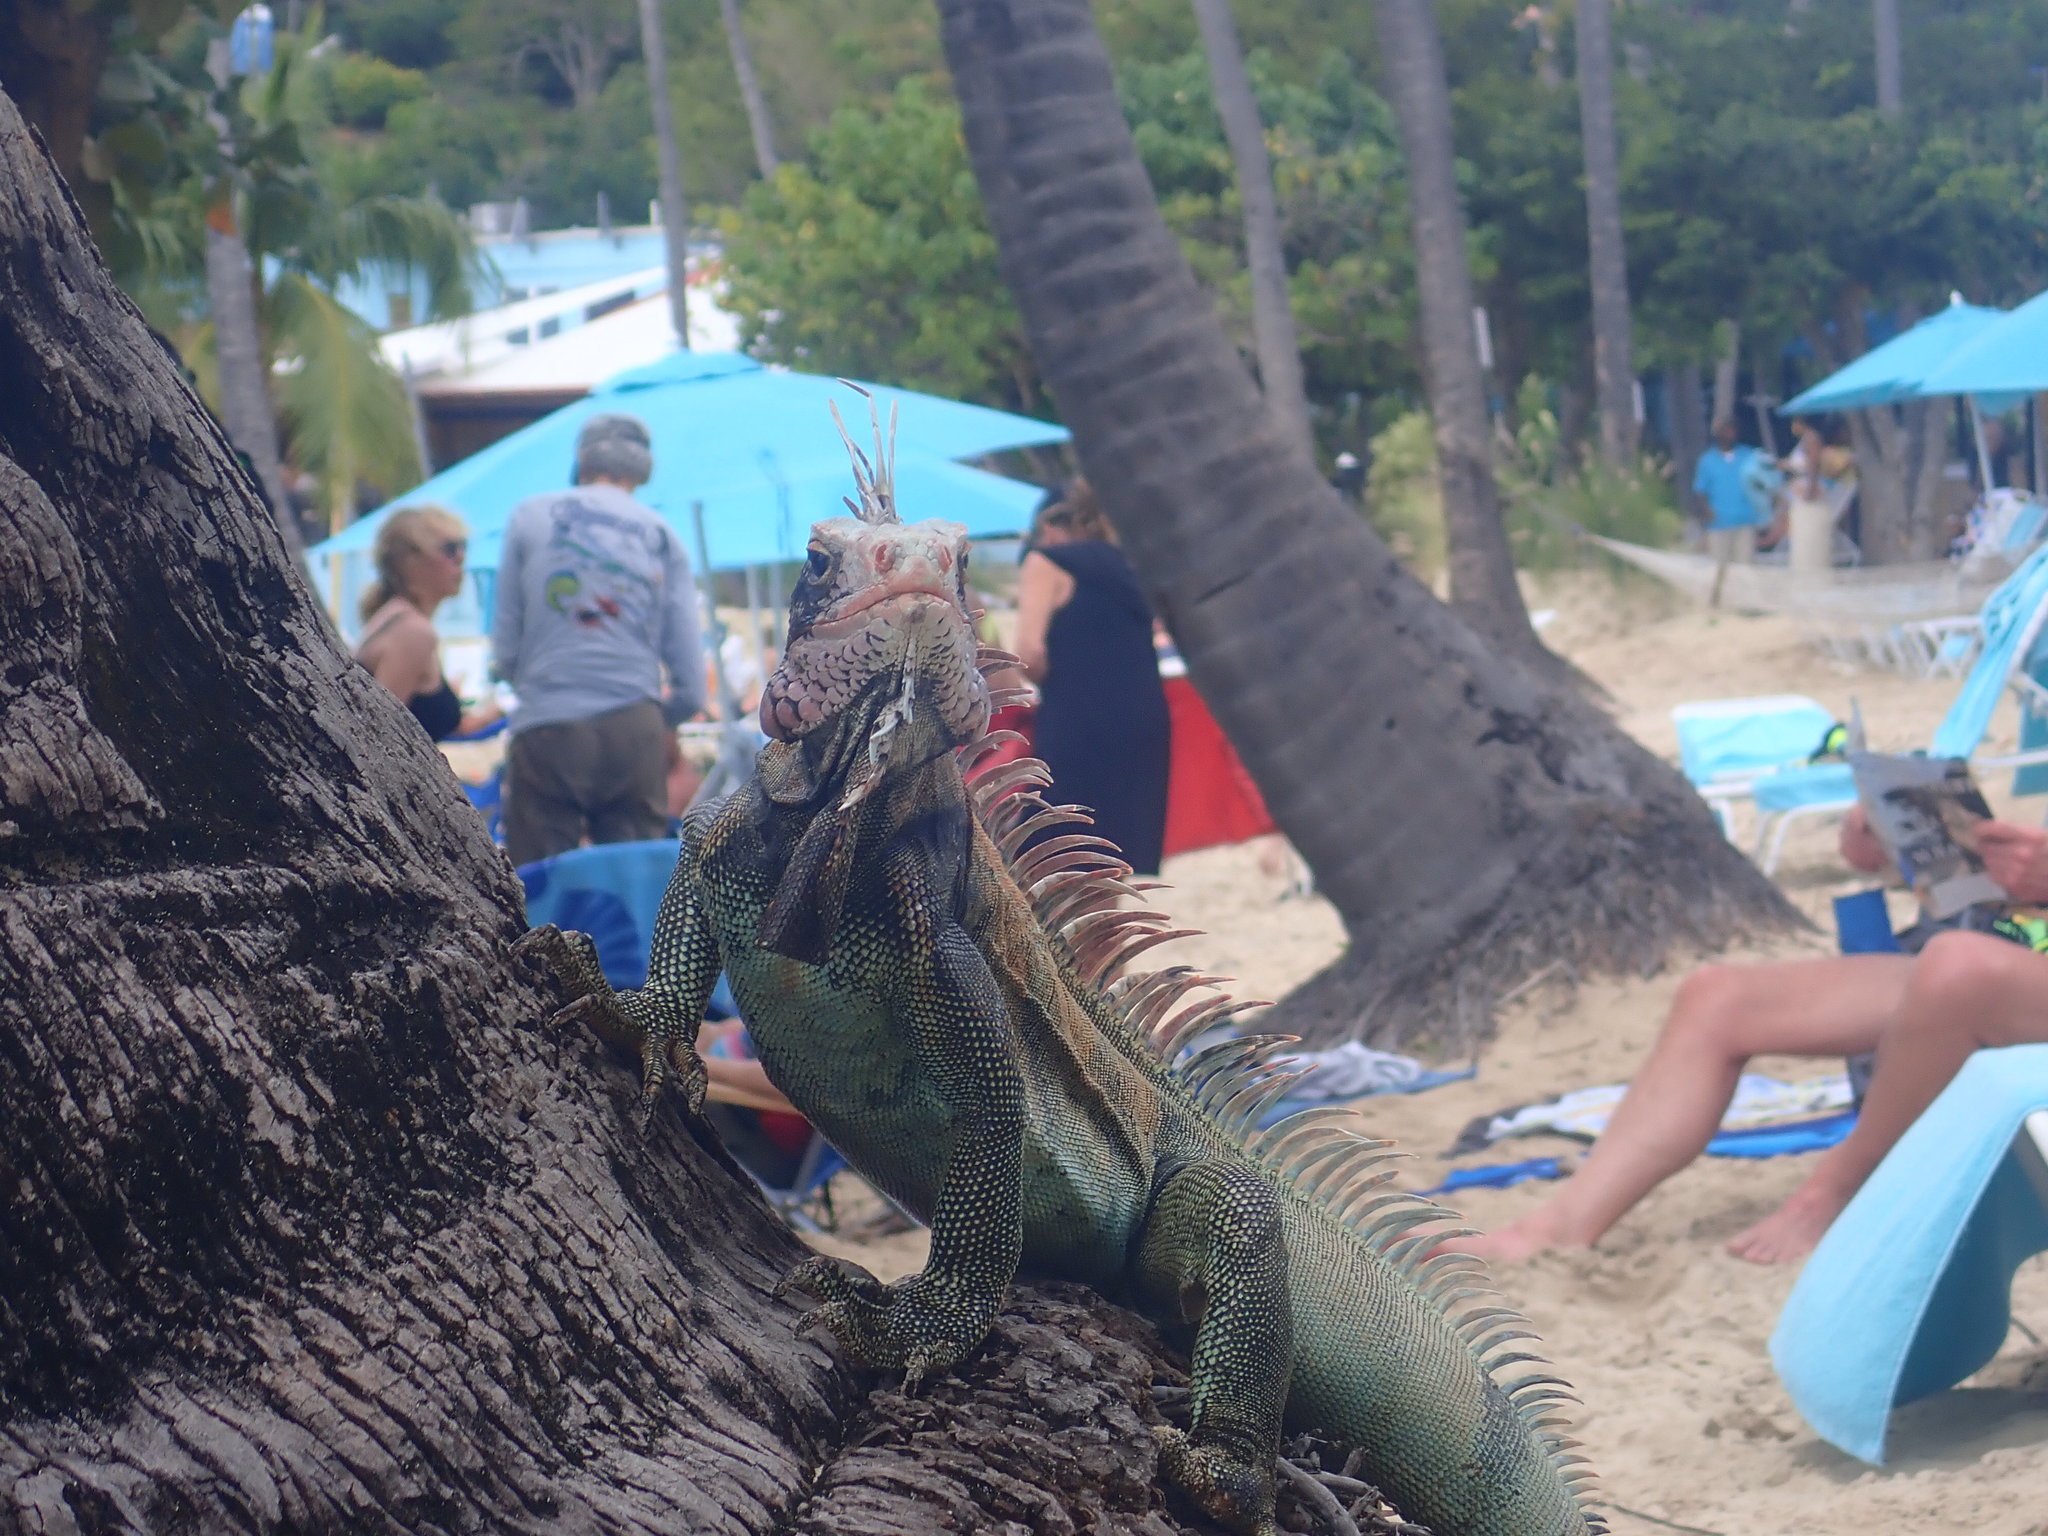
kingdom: Animalia
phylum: Chordata
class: Squamata
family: Iguanidae
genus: Iguana
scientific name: Iguana iguana
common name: Green iguana
